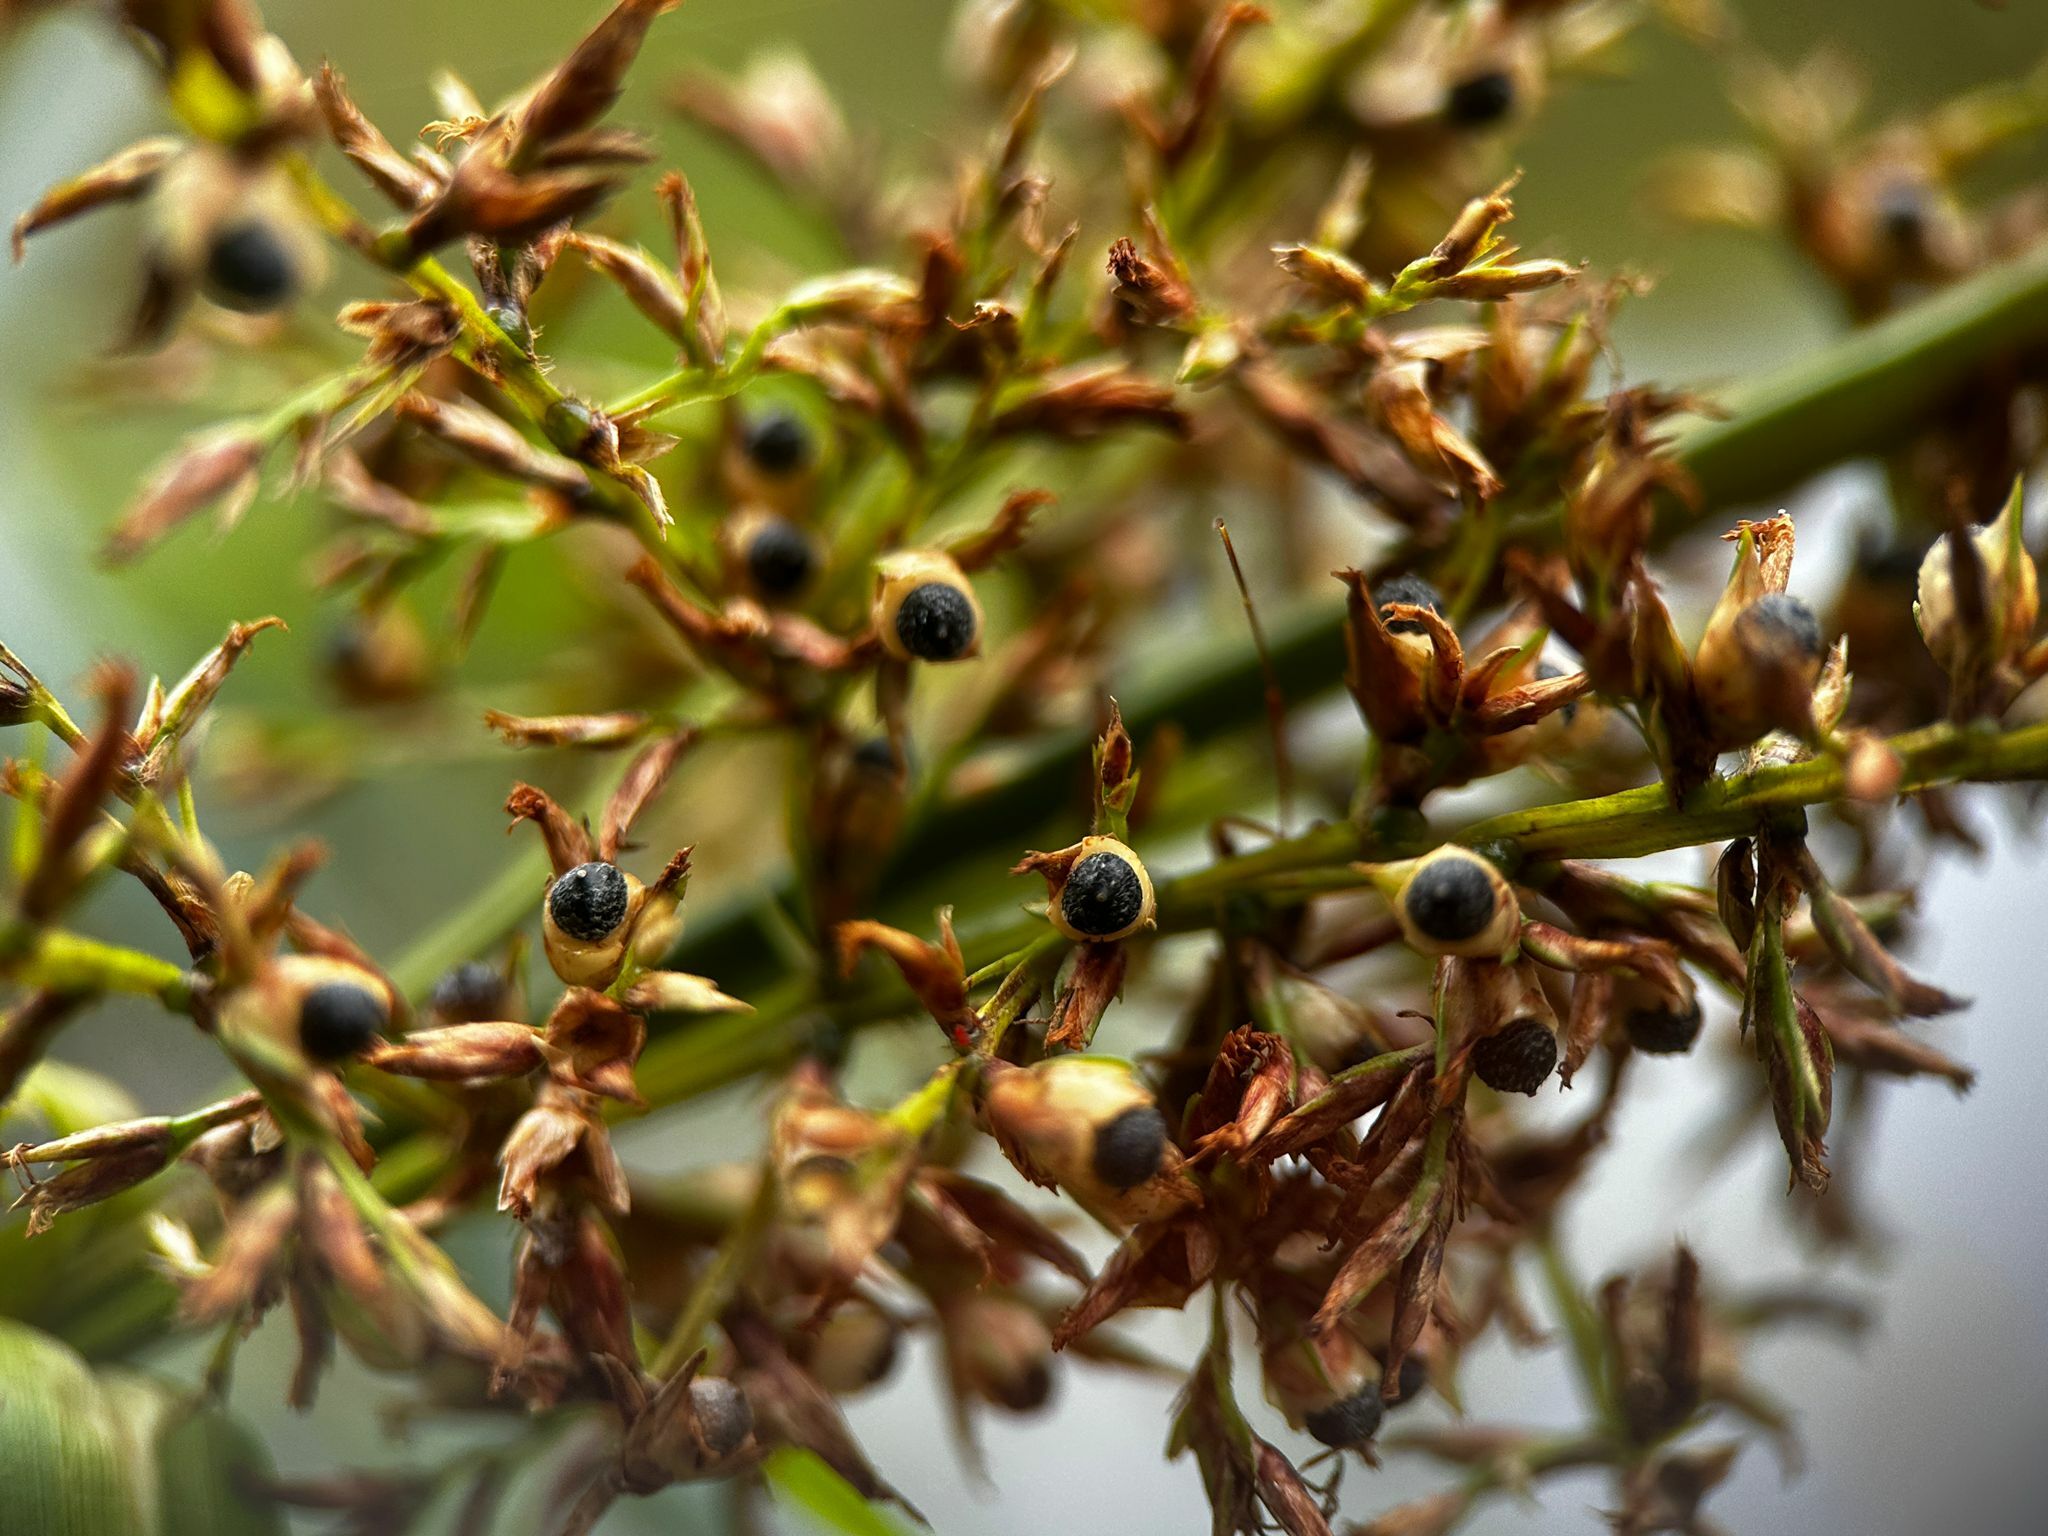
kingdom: Plantae
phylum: Tracheophyta
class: Liliopsida
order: Poales
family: Cyperaceae
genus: Scleria
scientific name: Scleria sumatrensis
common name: Sumatran scleria
